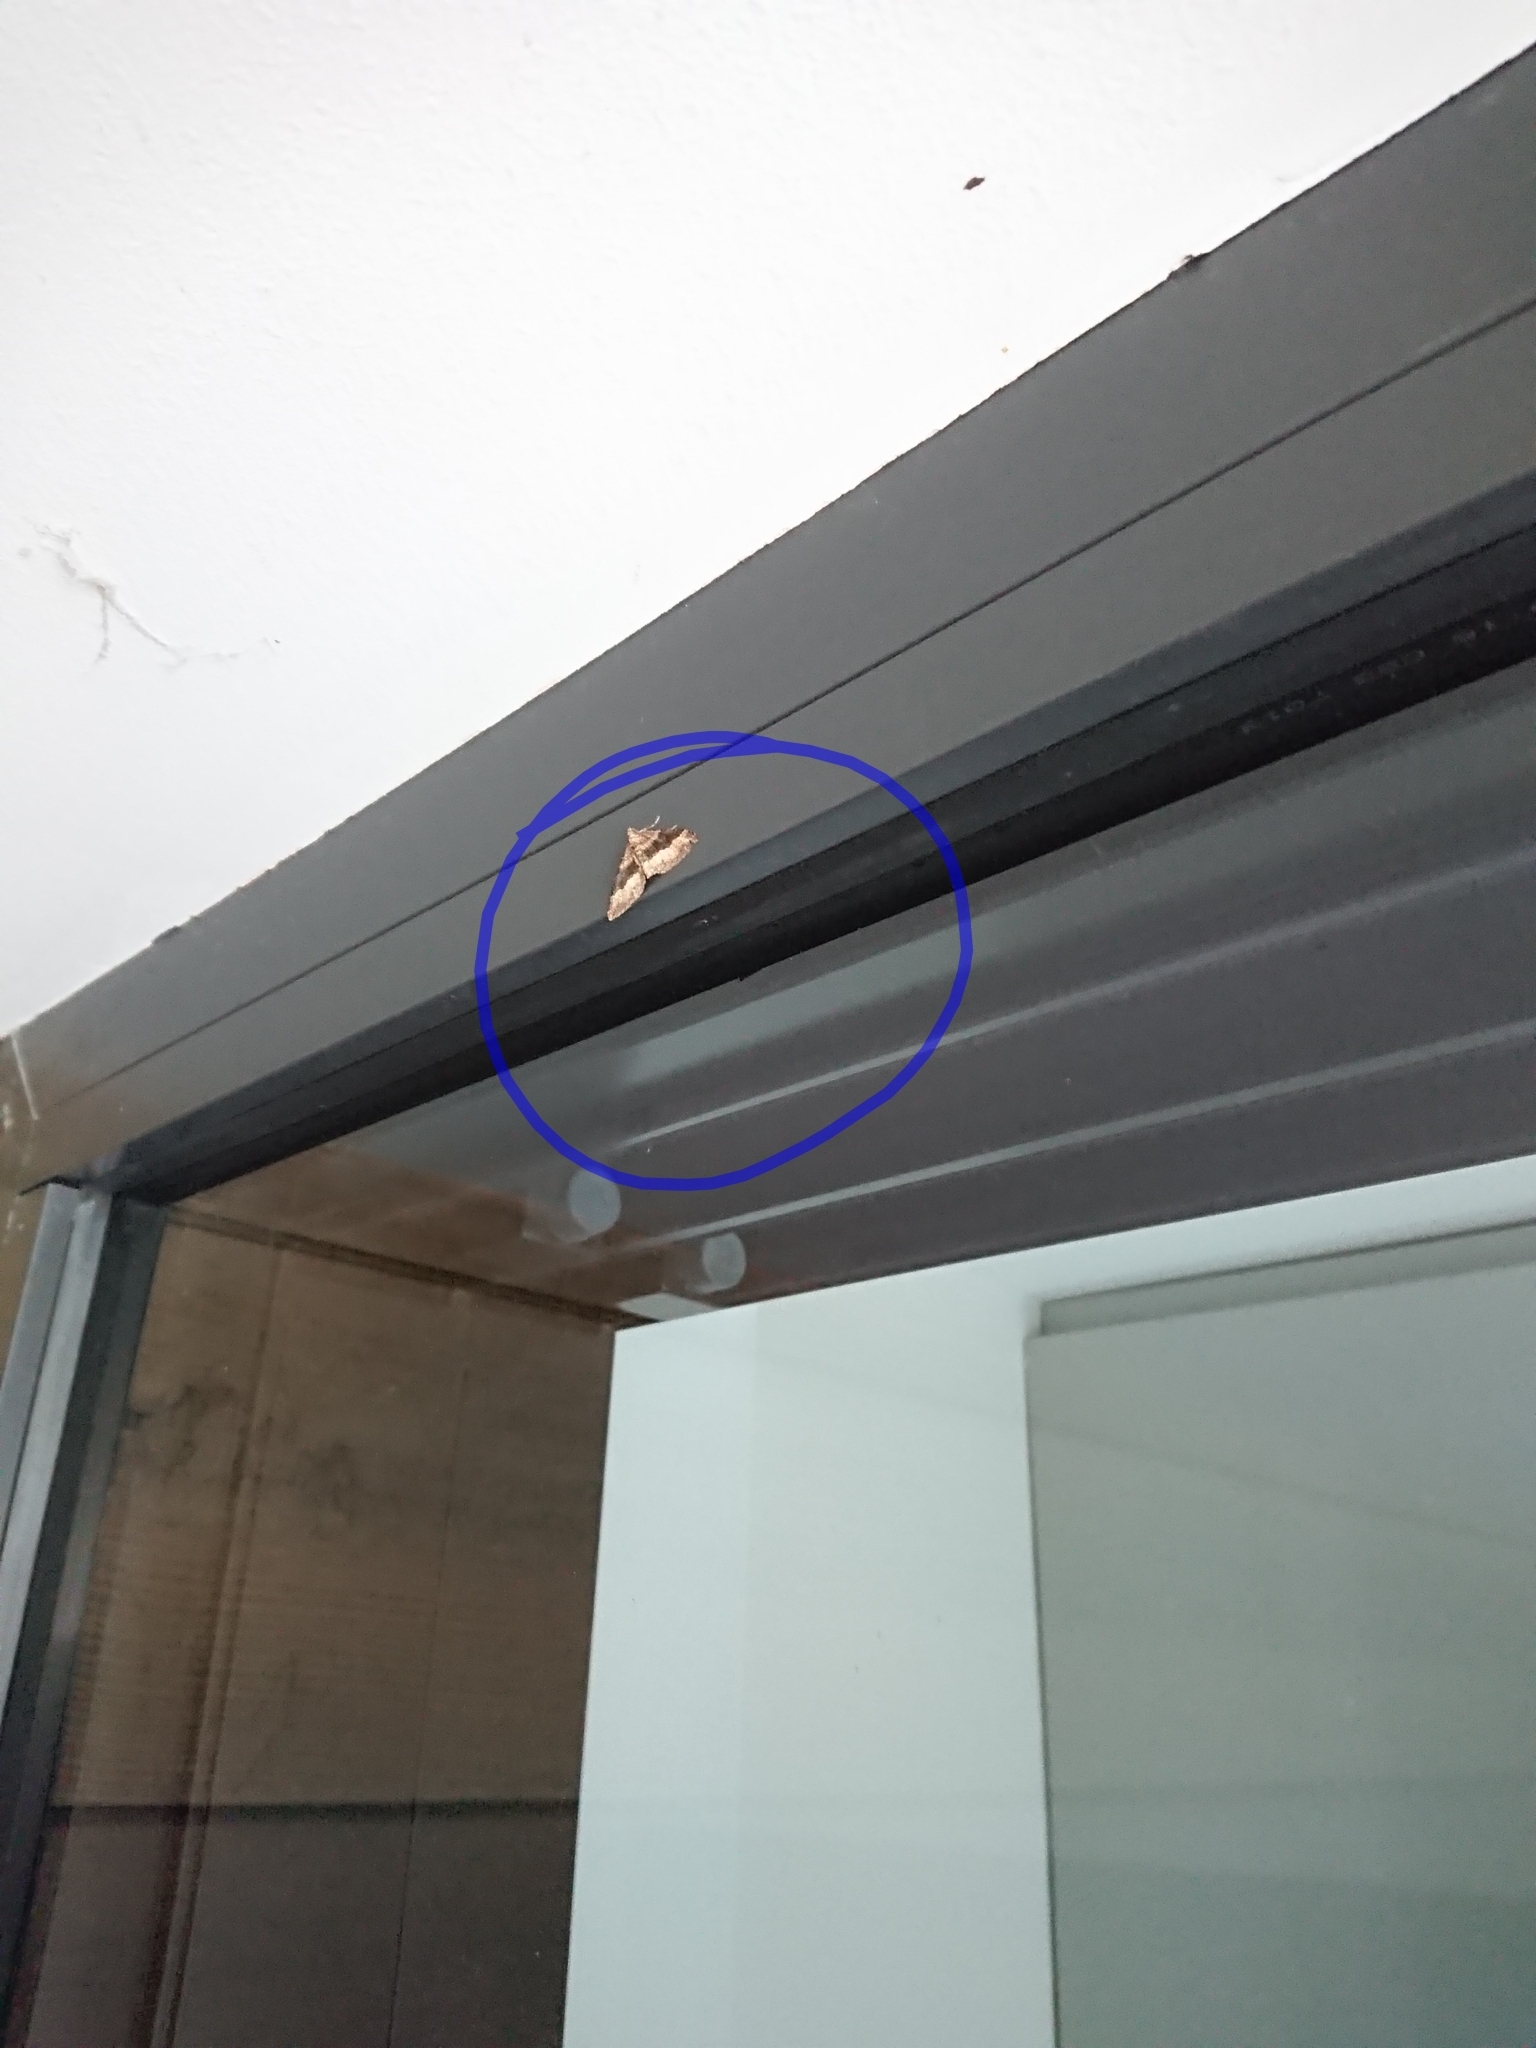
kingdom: Animalia
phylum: Arthropoda
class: Insecta
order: Lepidoptera
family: Geometridae
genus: Epyaxa
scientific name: Epyaxa lucidata
